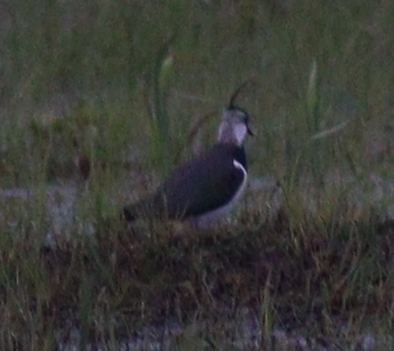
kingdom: Animalia
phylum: Chordata
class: Aves
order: Charadriiformes
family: Charadriidae
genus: Vanellus
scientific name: Vanellus vanellus
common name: Northern lapwing
